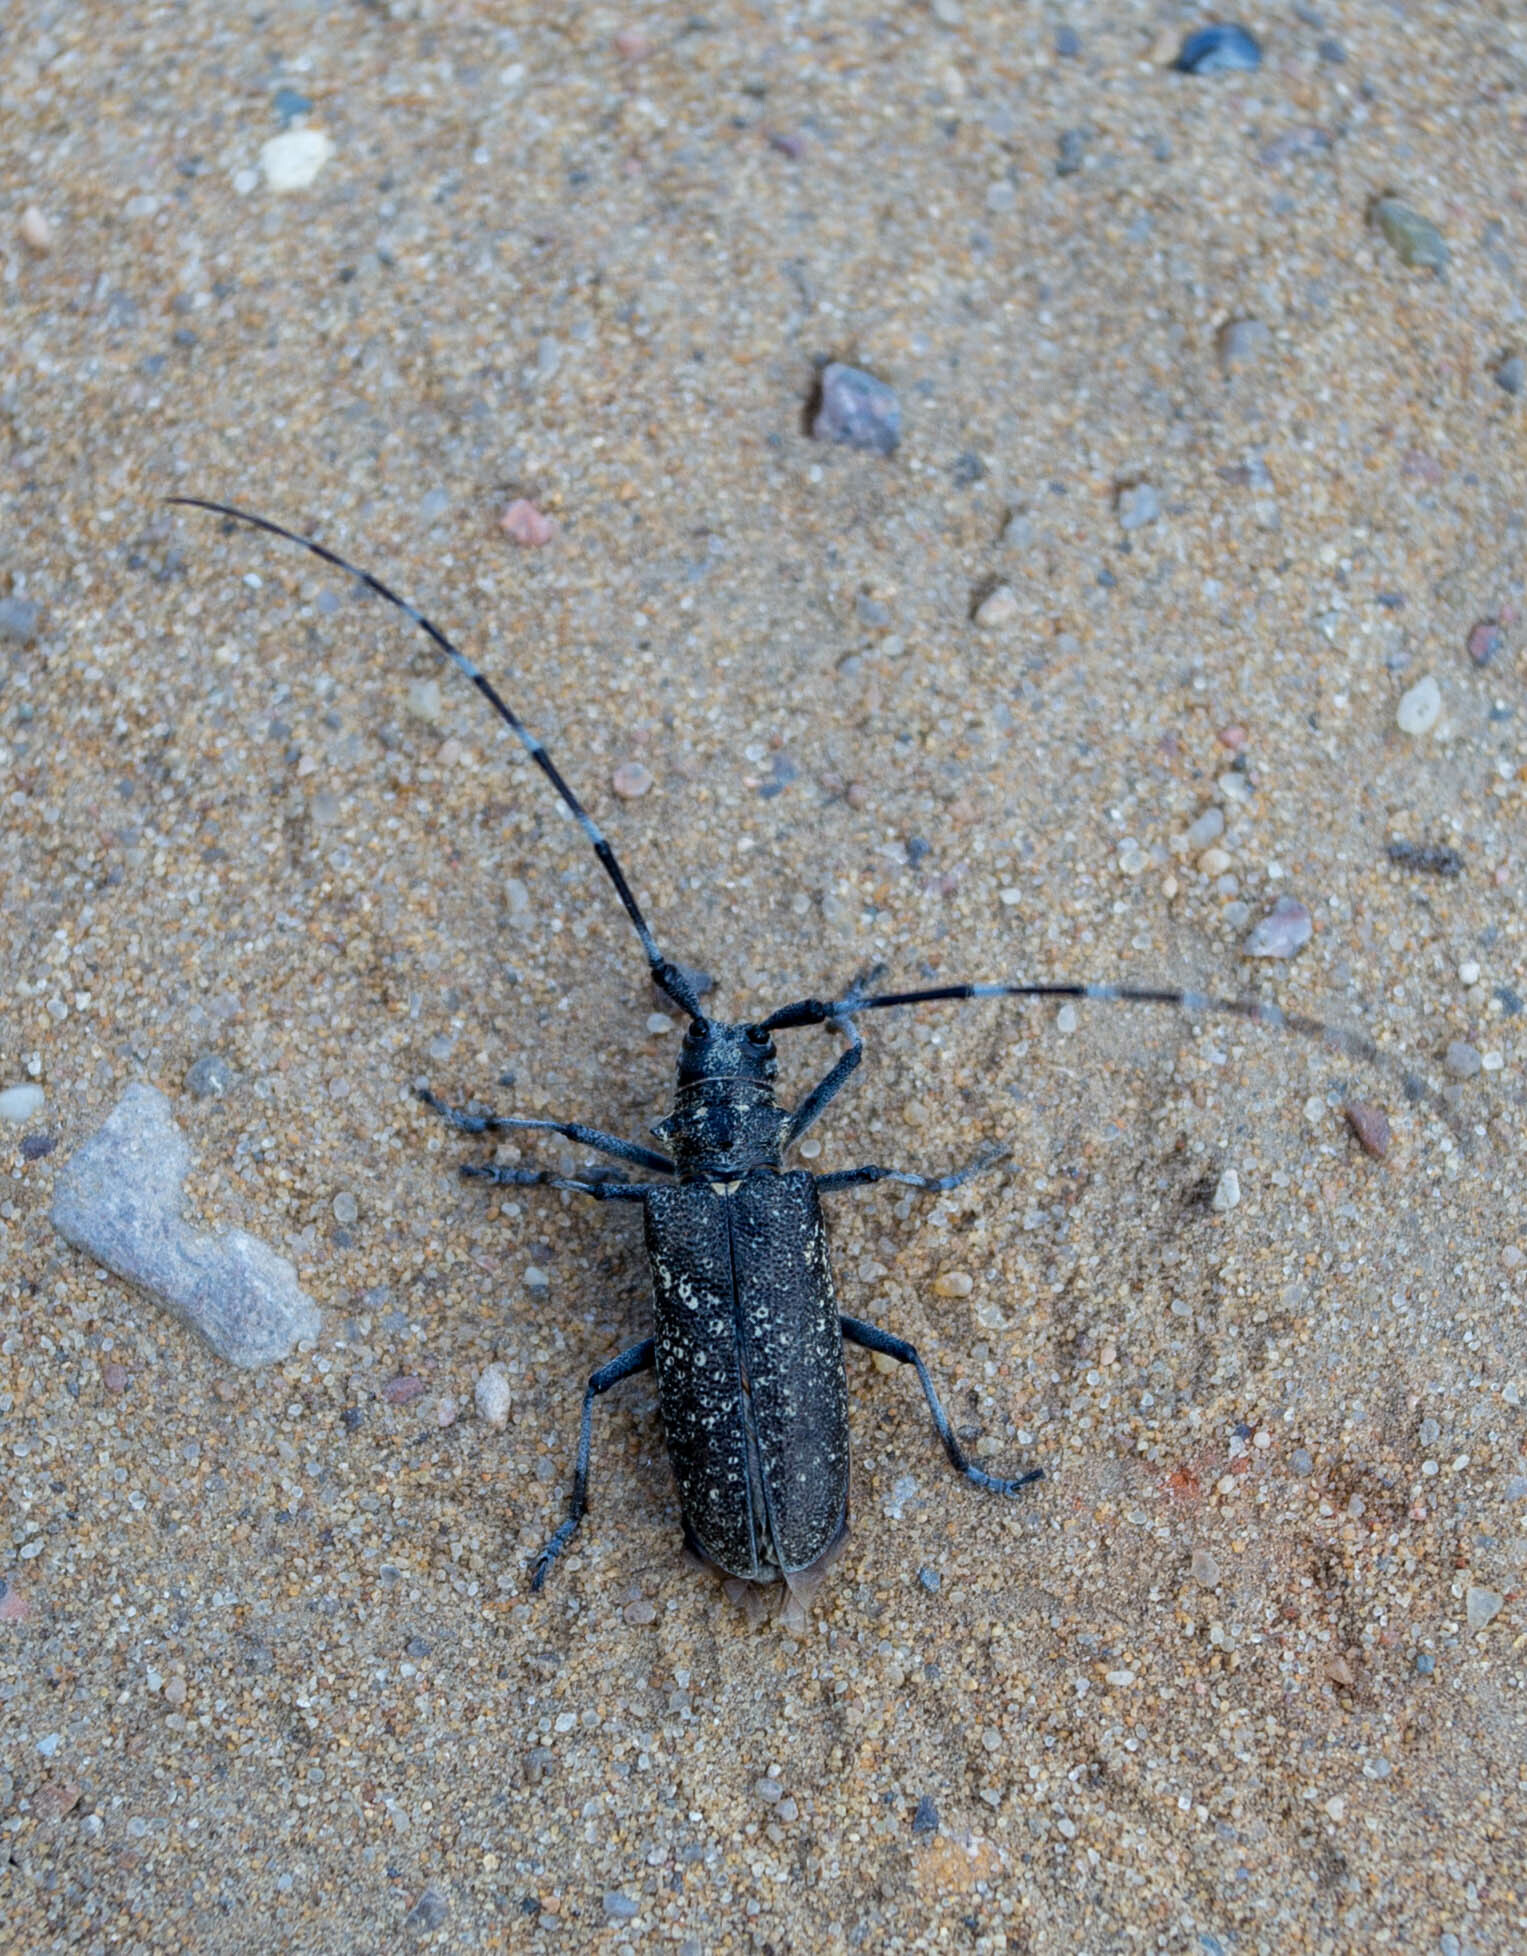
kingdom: Animalia
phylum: Arthropoda
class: Insecta
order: Coleoptera
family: Cerambycidae
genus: Monochamus
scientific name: Monochamus sutor
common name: Pine sawyer
